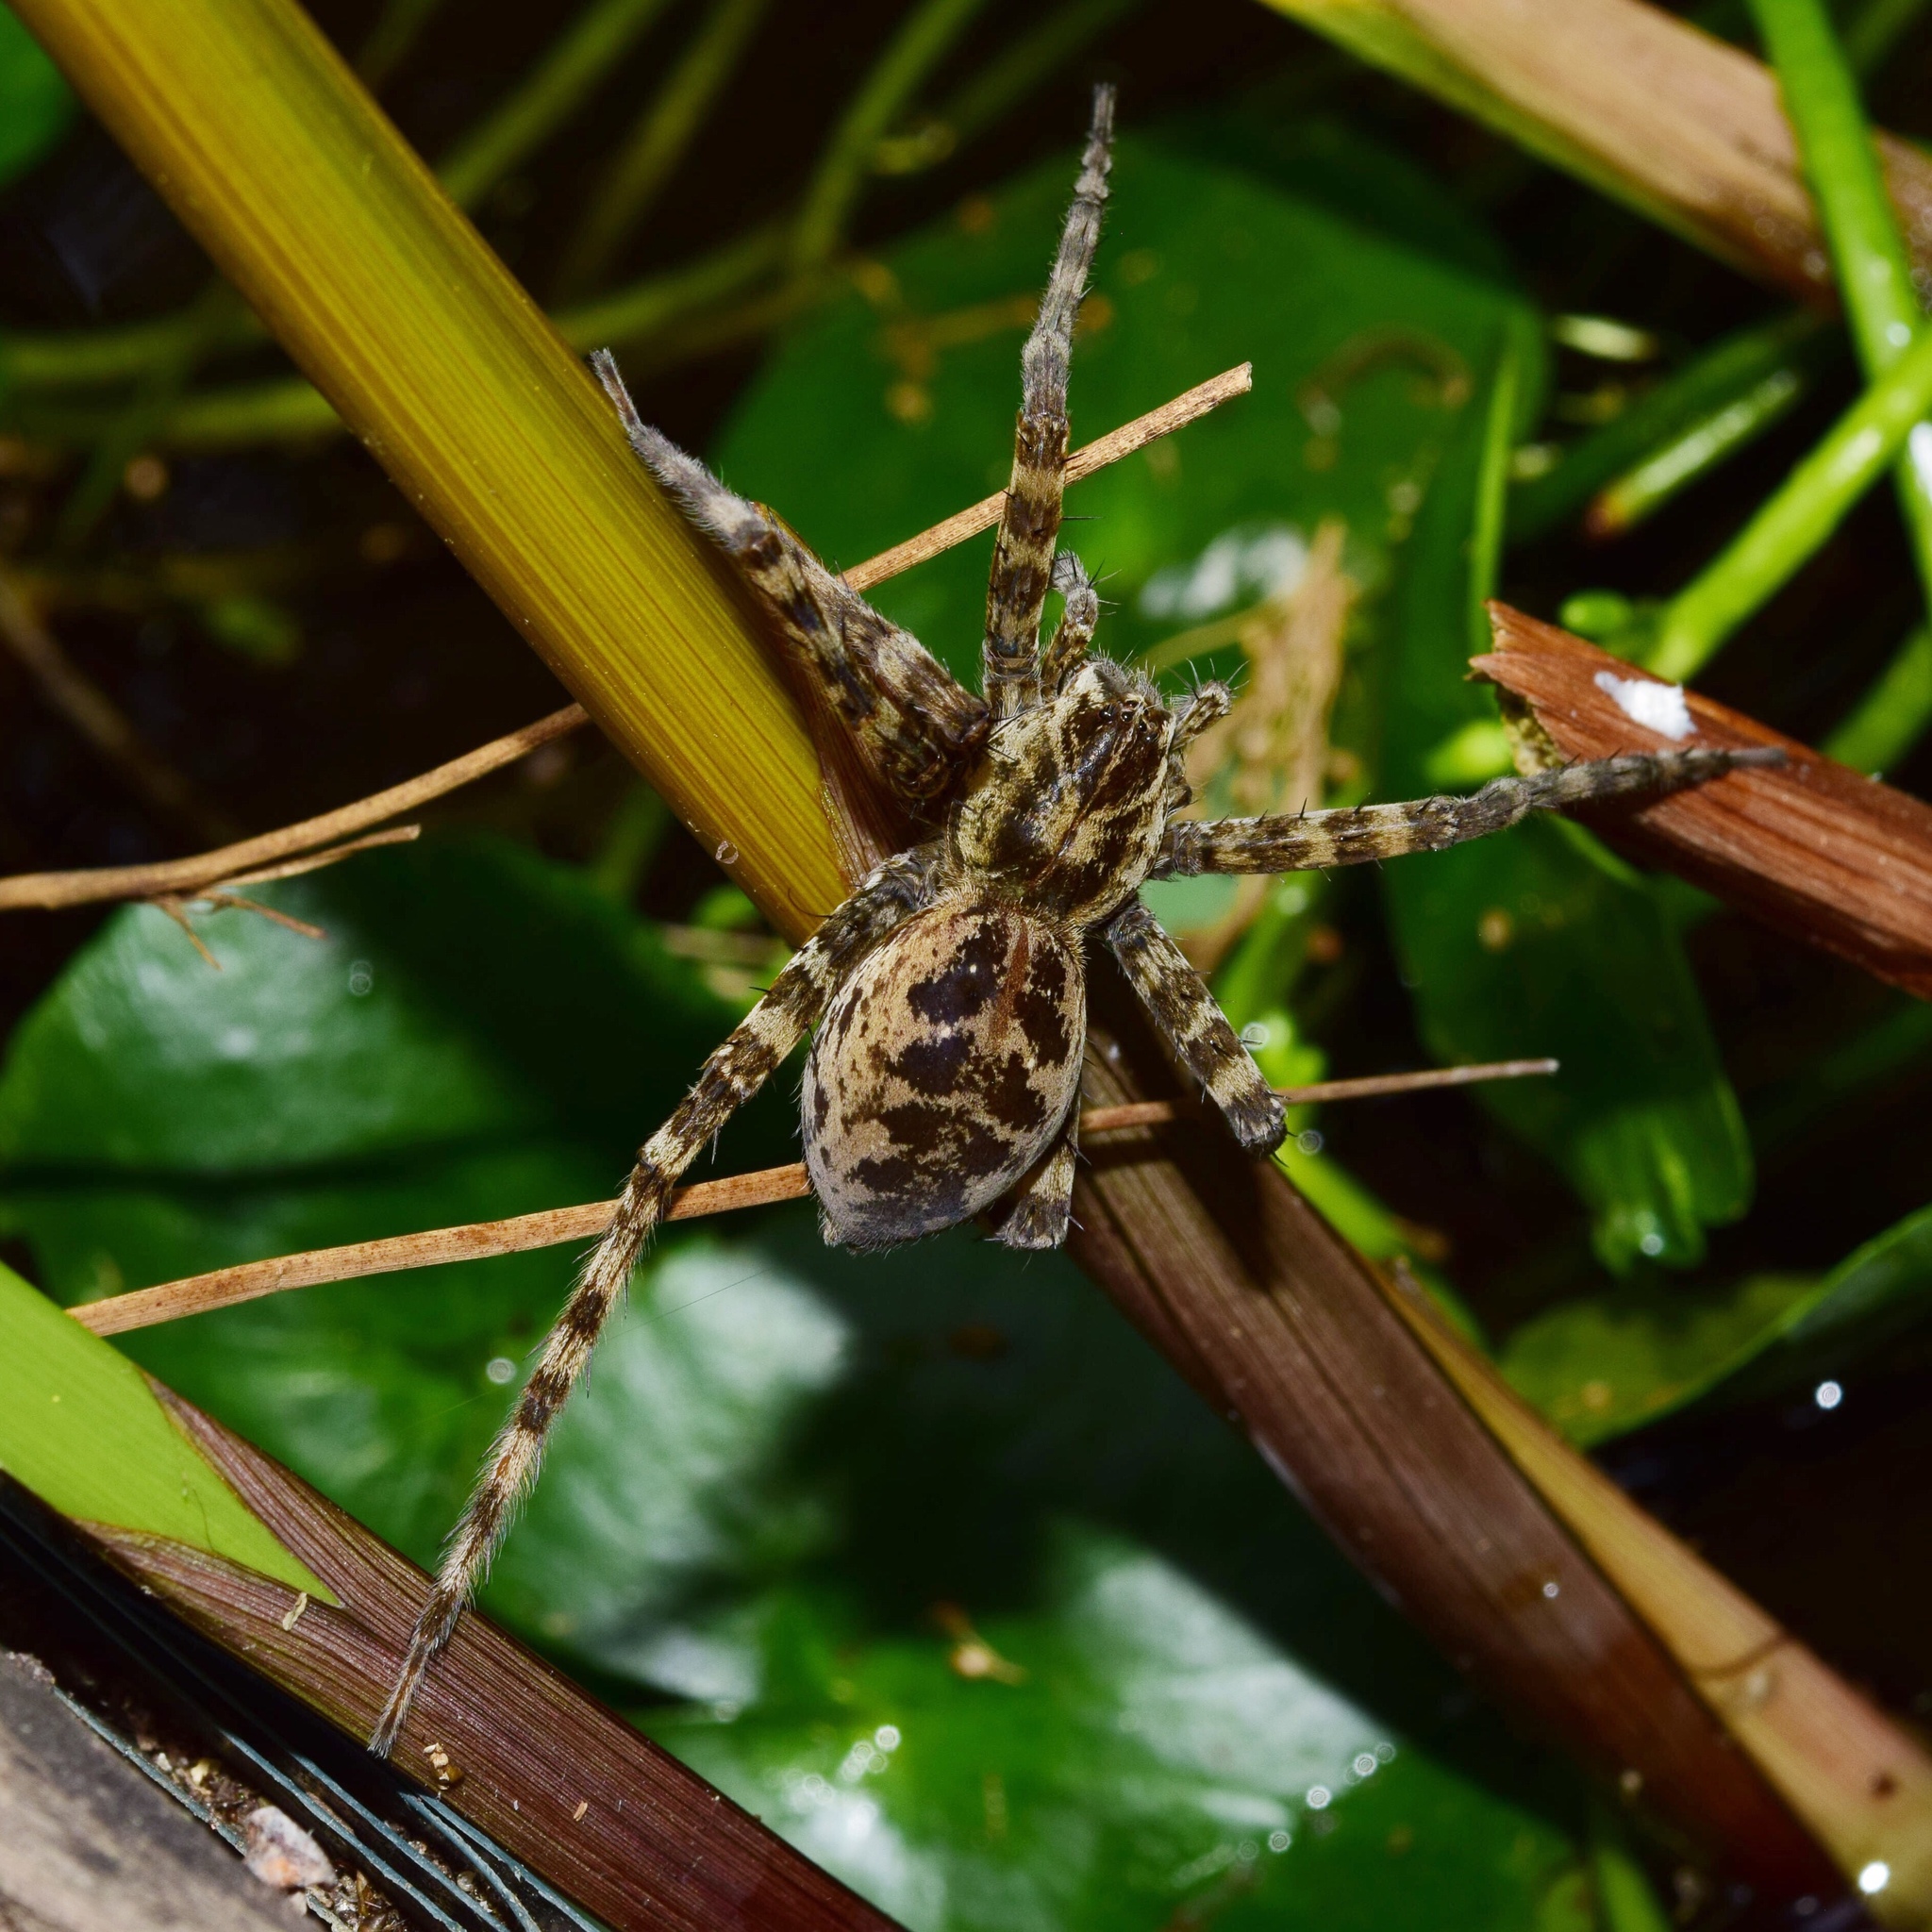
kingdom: Animalia
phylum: Arthropoda
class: Arachnida
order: Araneae
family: Pisauridae
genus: Nilus
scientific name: Nilus radiatolineatus
